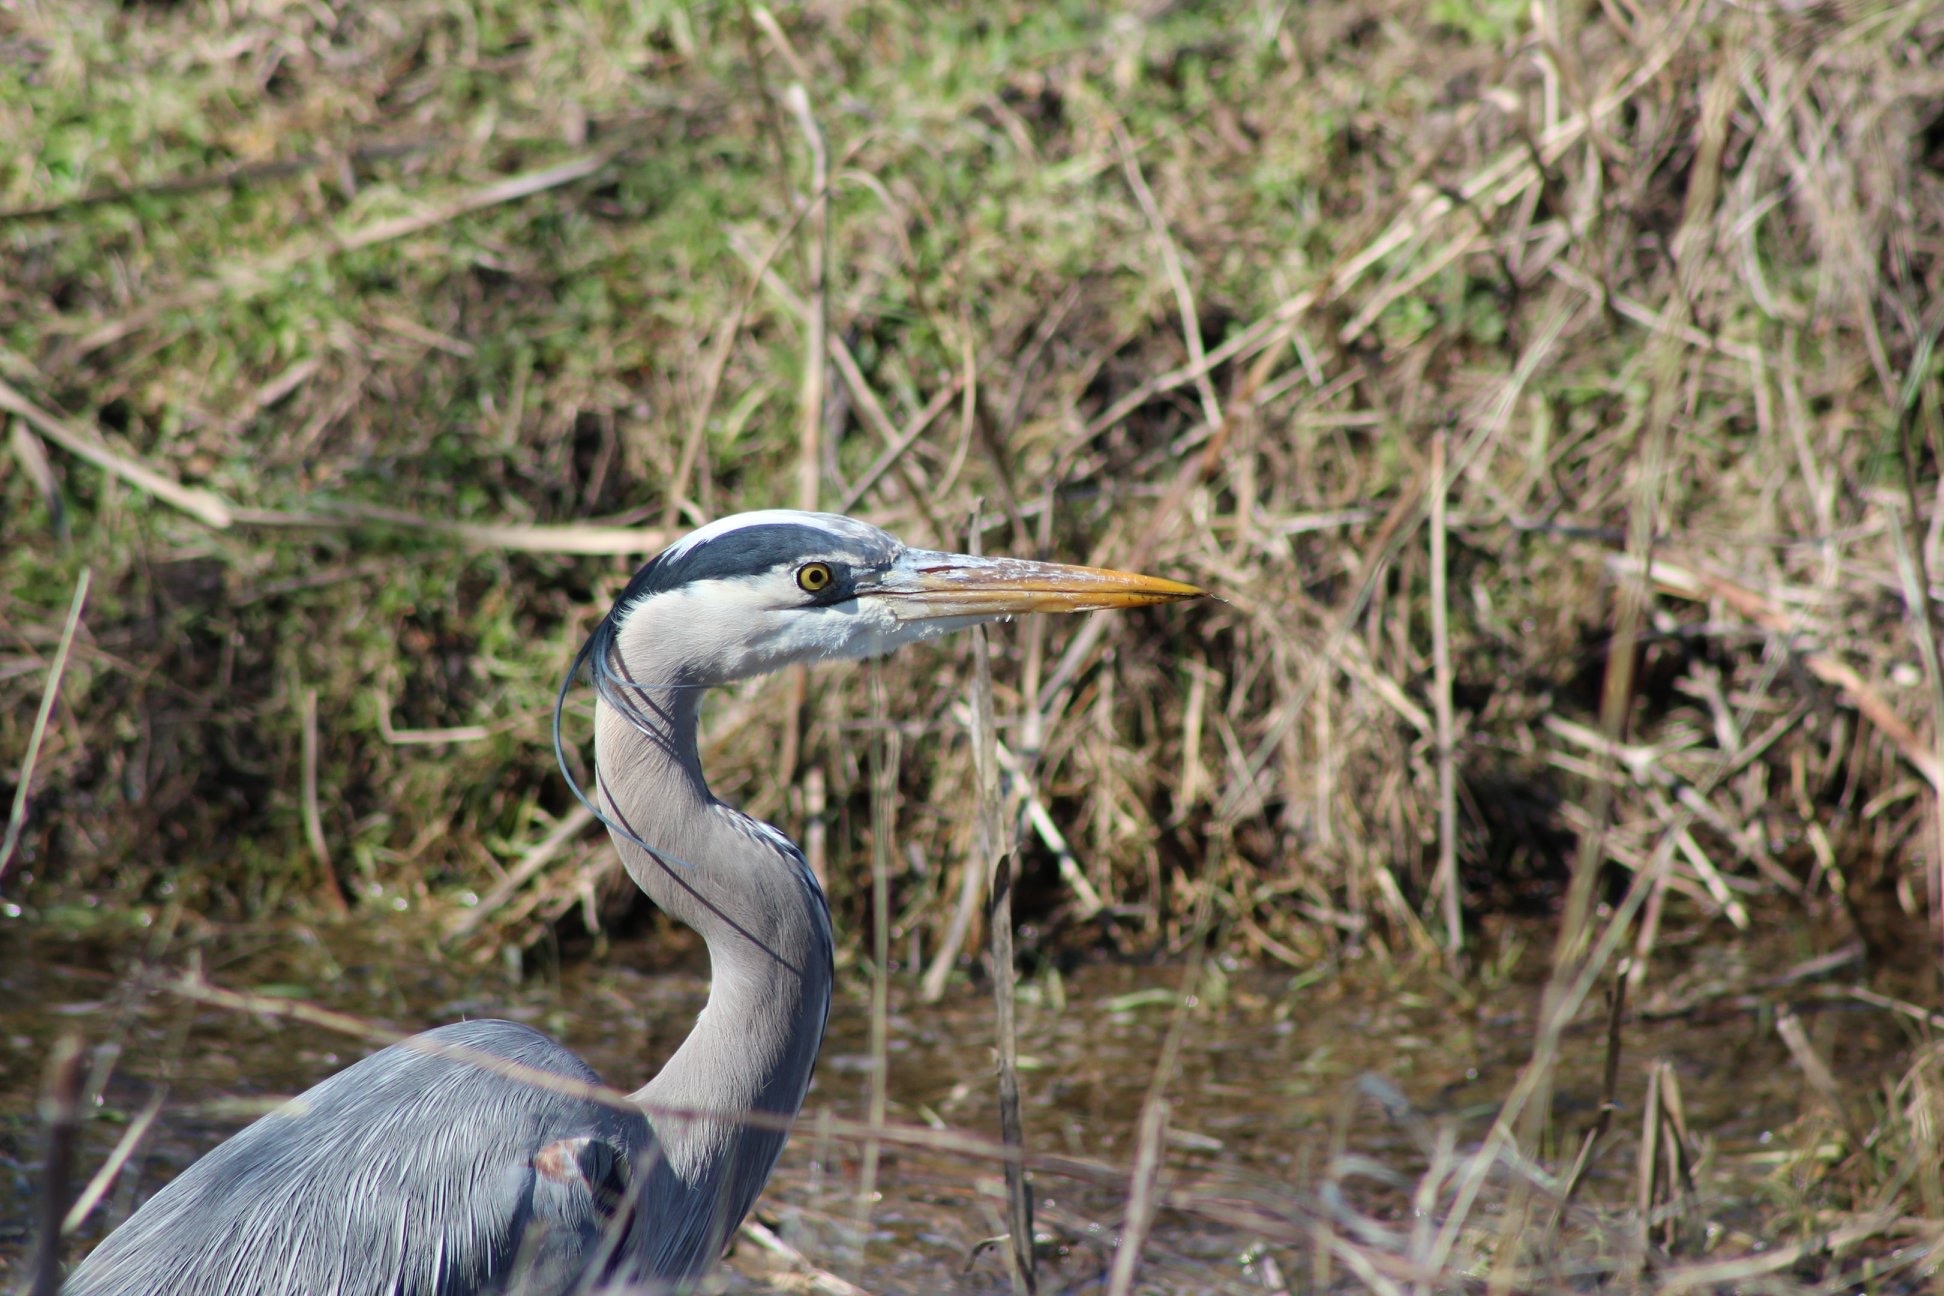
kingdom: Animalia
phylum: Chordata
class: Aves
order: Pelecaniformes
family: Ardeidae
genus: Ardea
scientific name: Ardea herodias
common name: Great blue heron
